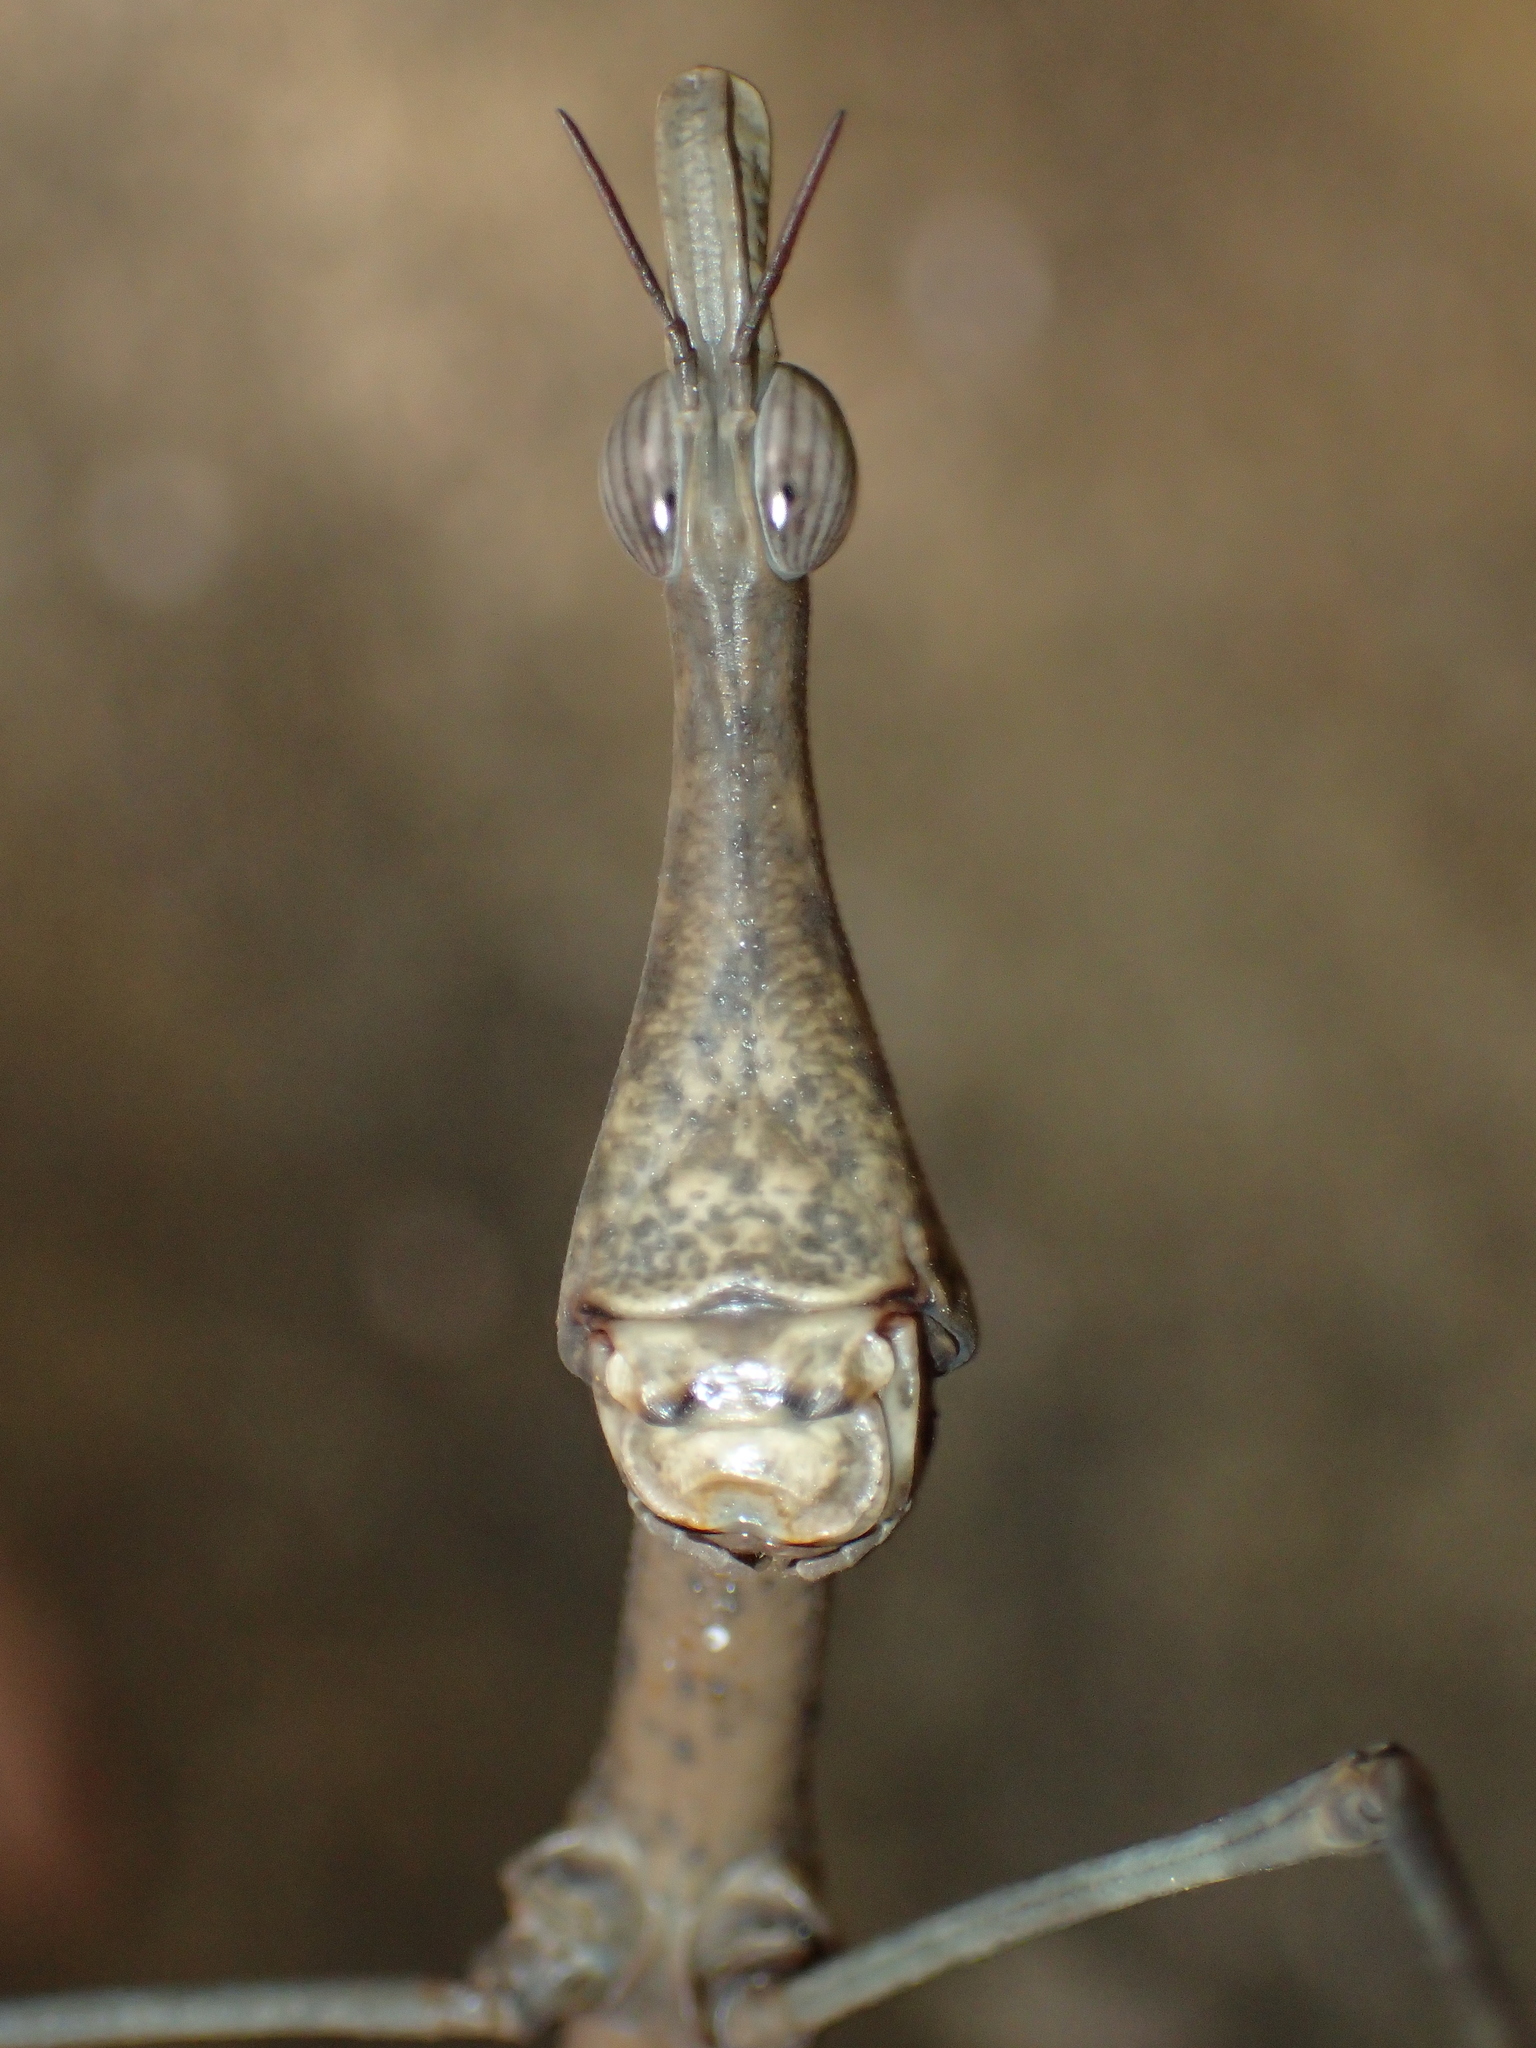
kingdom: Animalia
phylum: Arthropoda
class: Insecta
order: Orthoptera
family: Proscopiidae
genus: Pseudoproscopia
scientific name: Pseudoproscopia scabra
